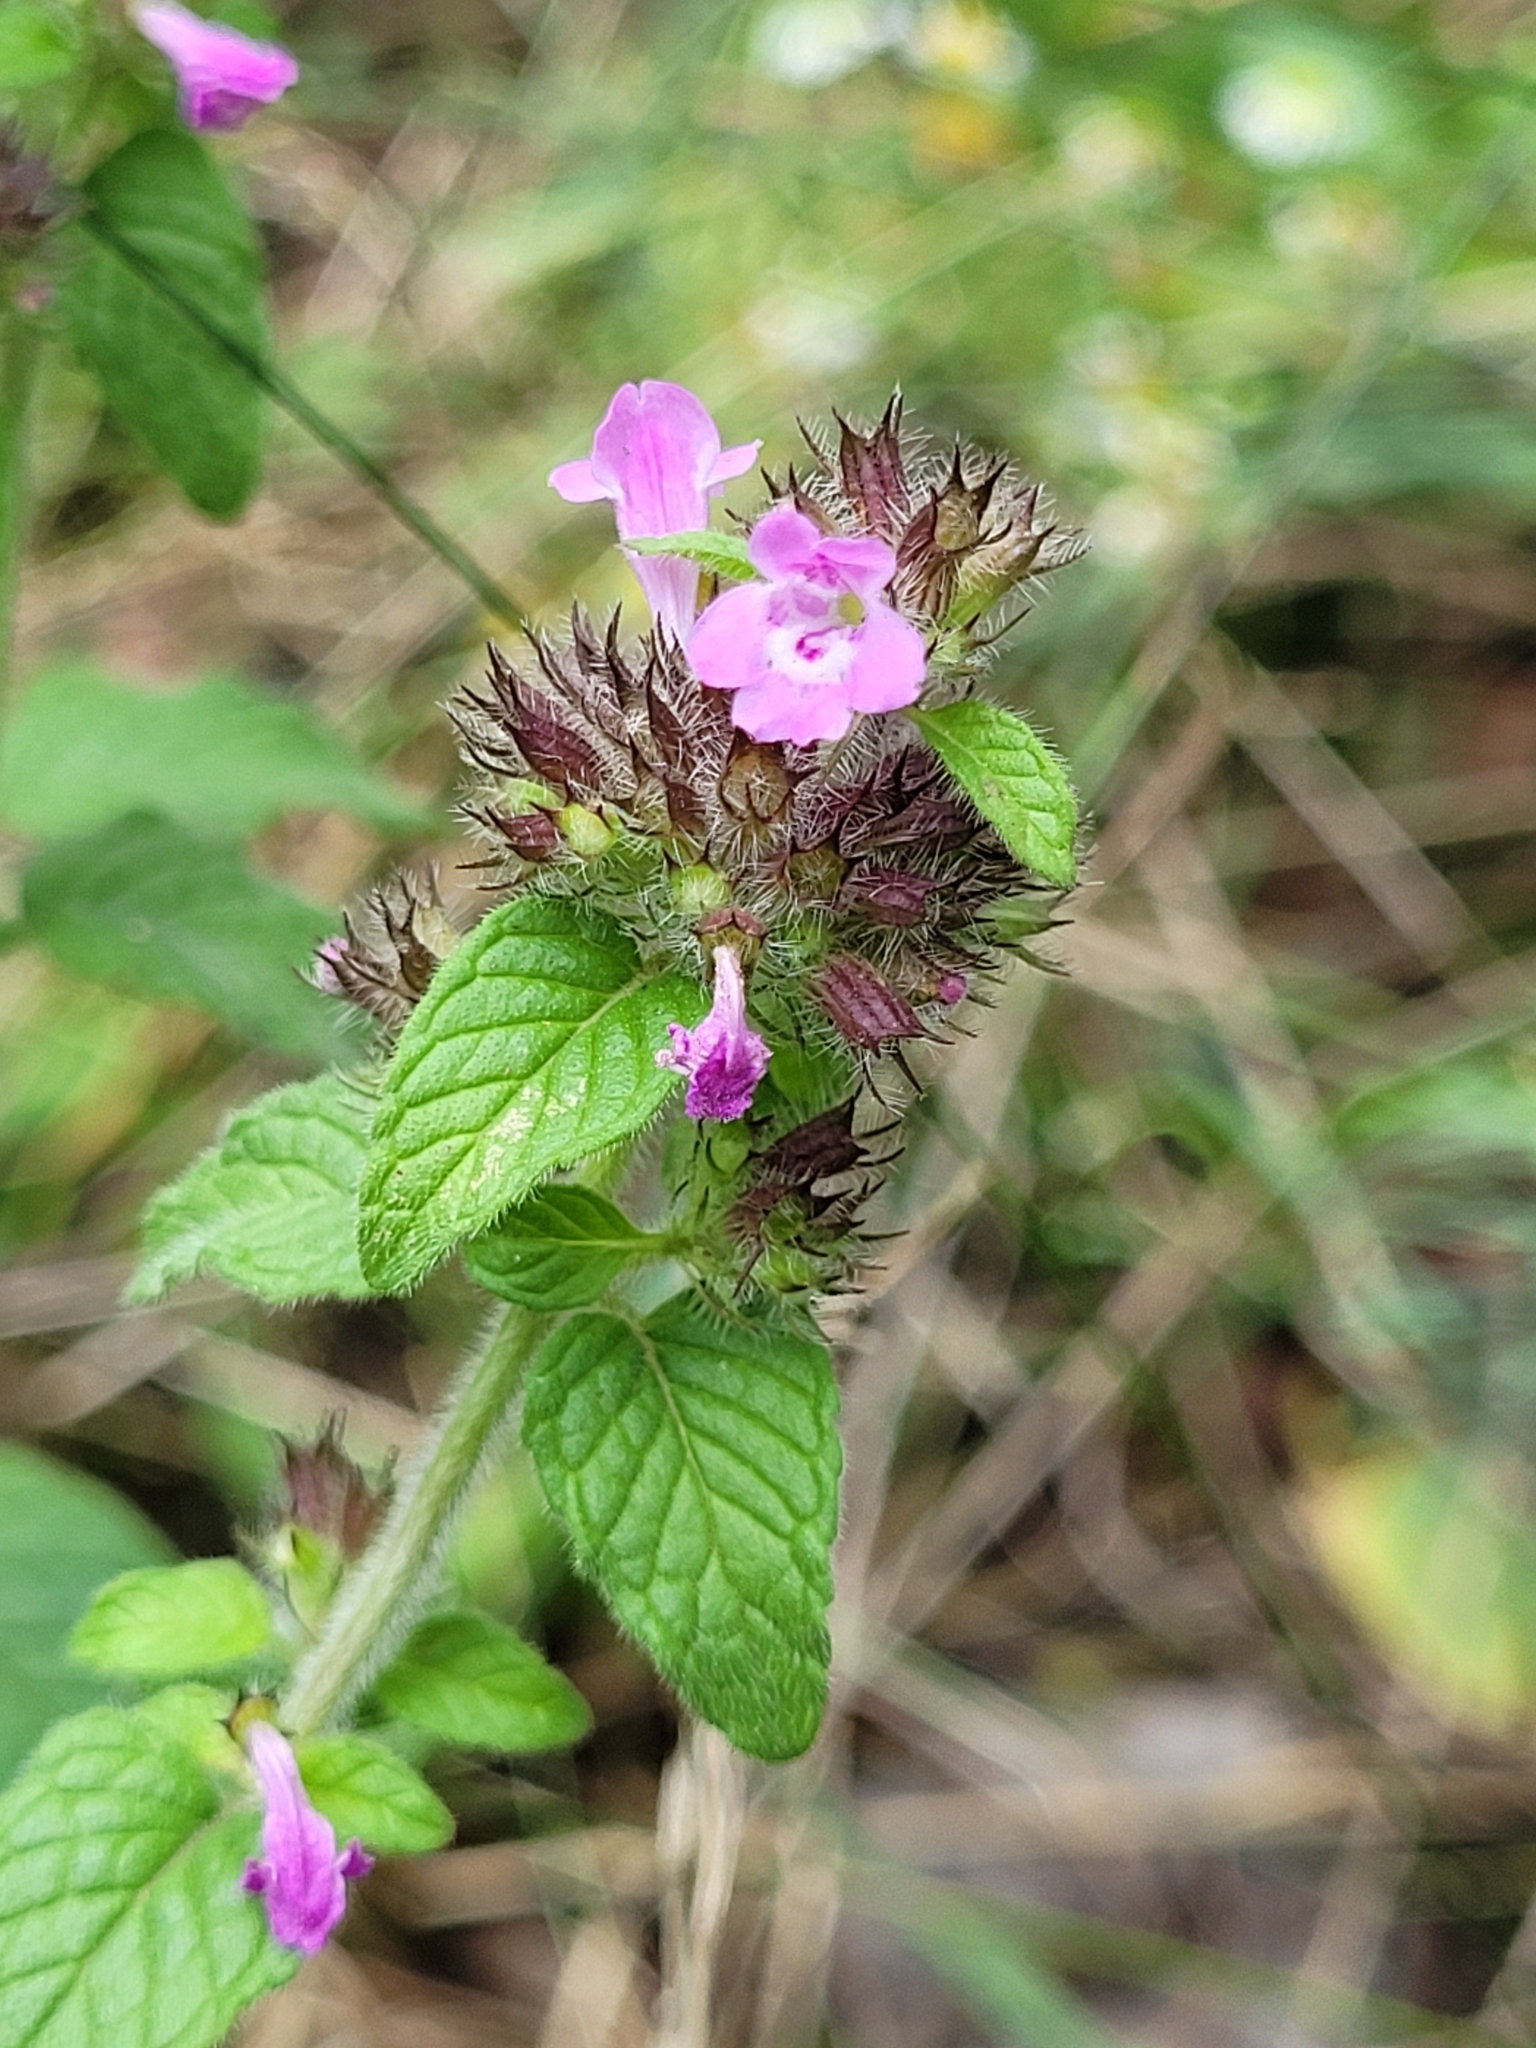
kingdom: Plantae
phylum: Tracheophyta
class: Magnoliopsida
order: Lamiales
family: Lamiaceae
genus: Clinopodium
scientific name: Clinopodium vulgare
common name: Wild basil
